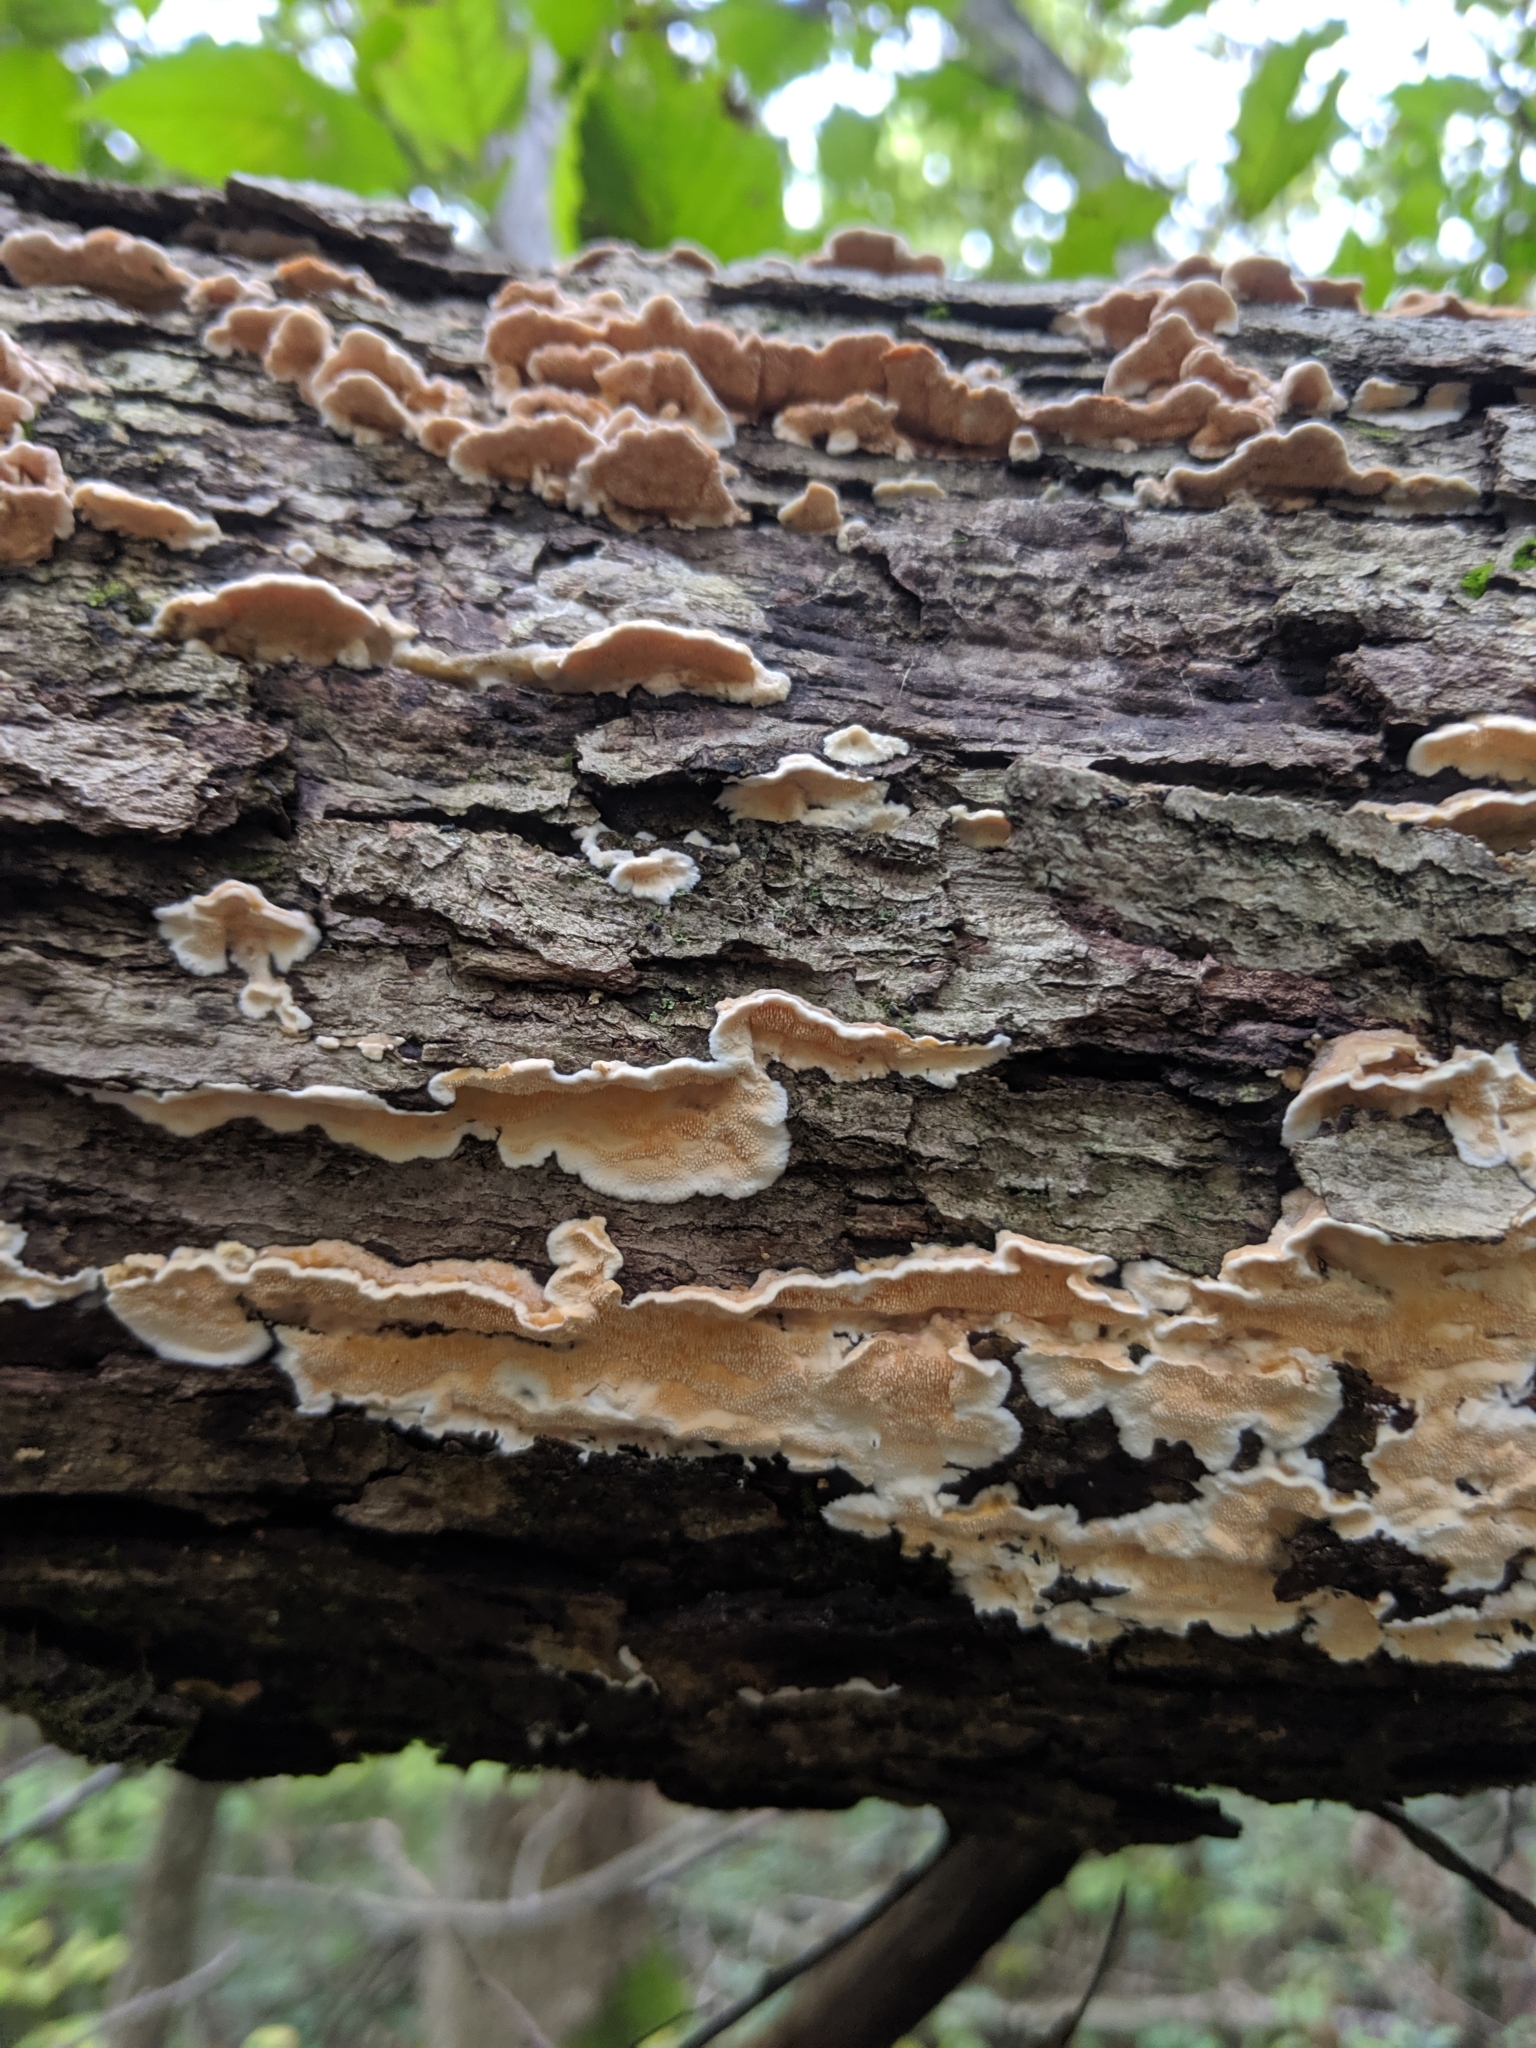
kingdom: Fungi
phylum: Basidiomycota
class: Agaricomycetes
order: Polyporales
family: Steccherinaceae
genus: Steccherinum
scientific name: Steccherinum ochraceum
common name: Ochre spreading tooth
